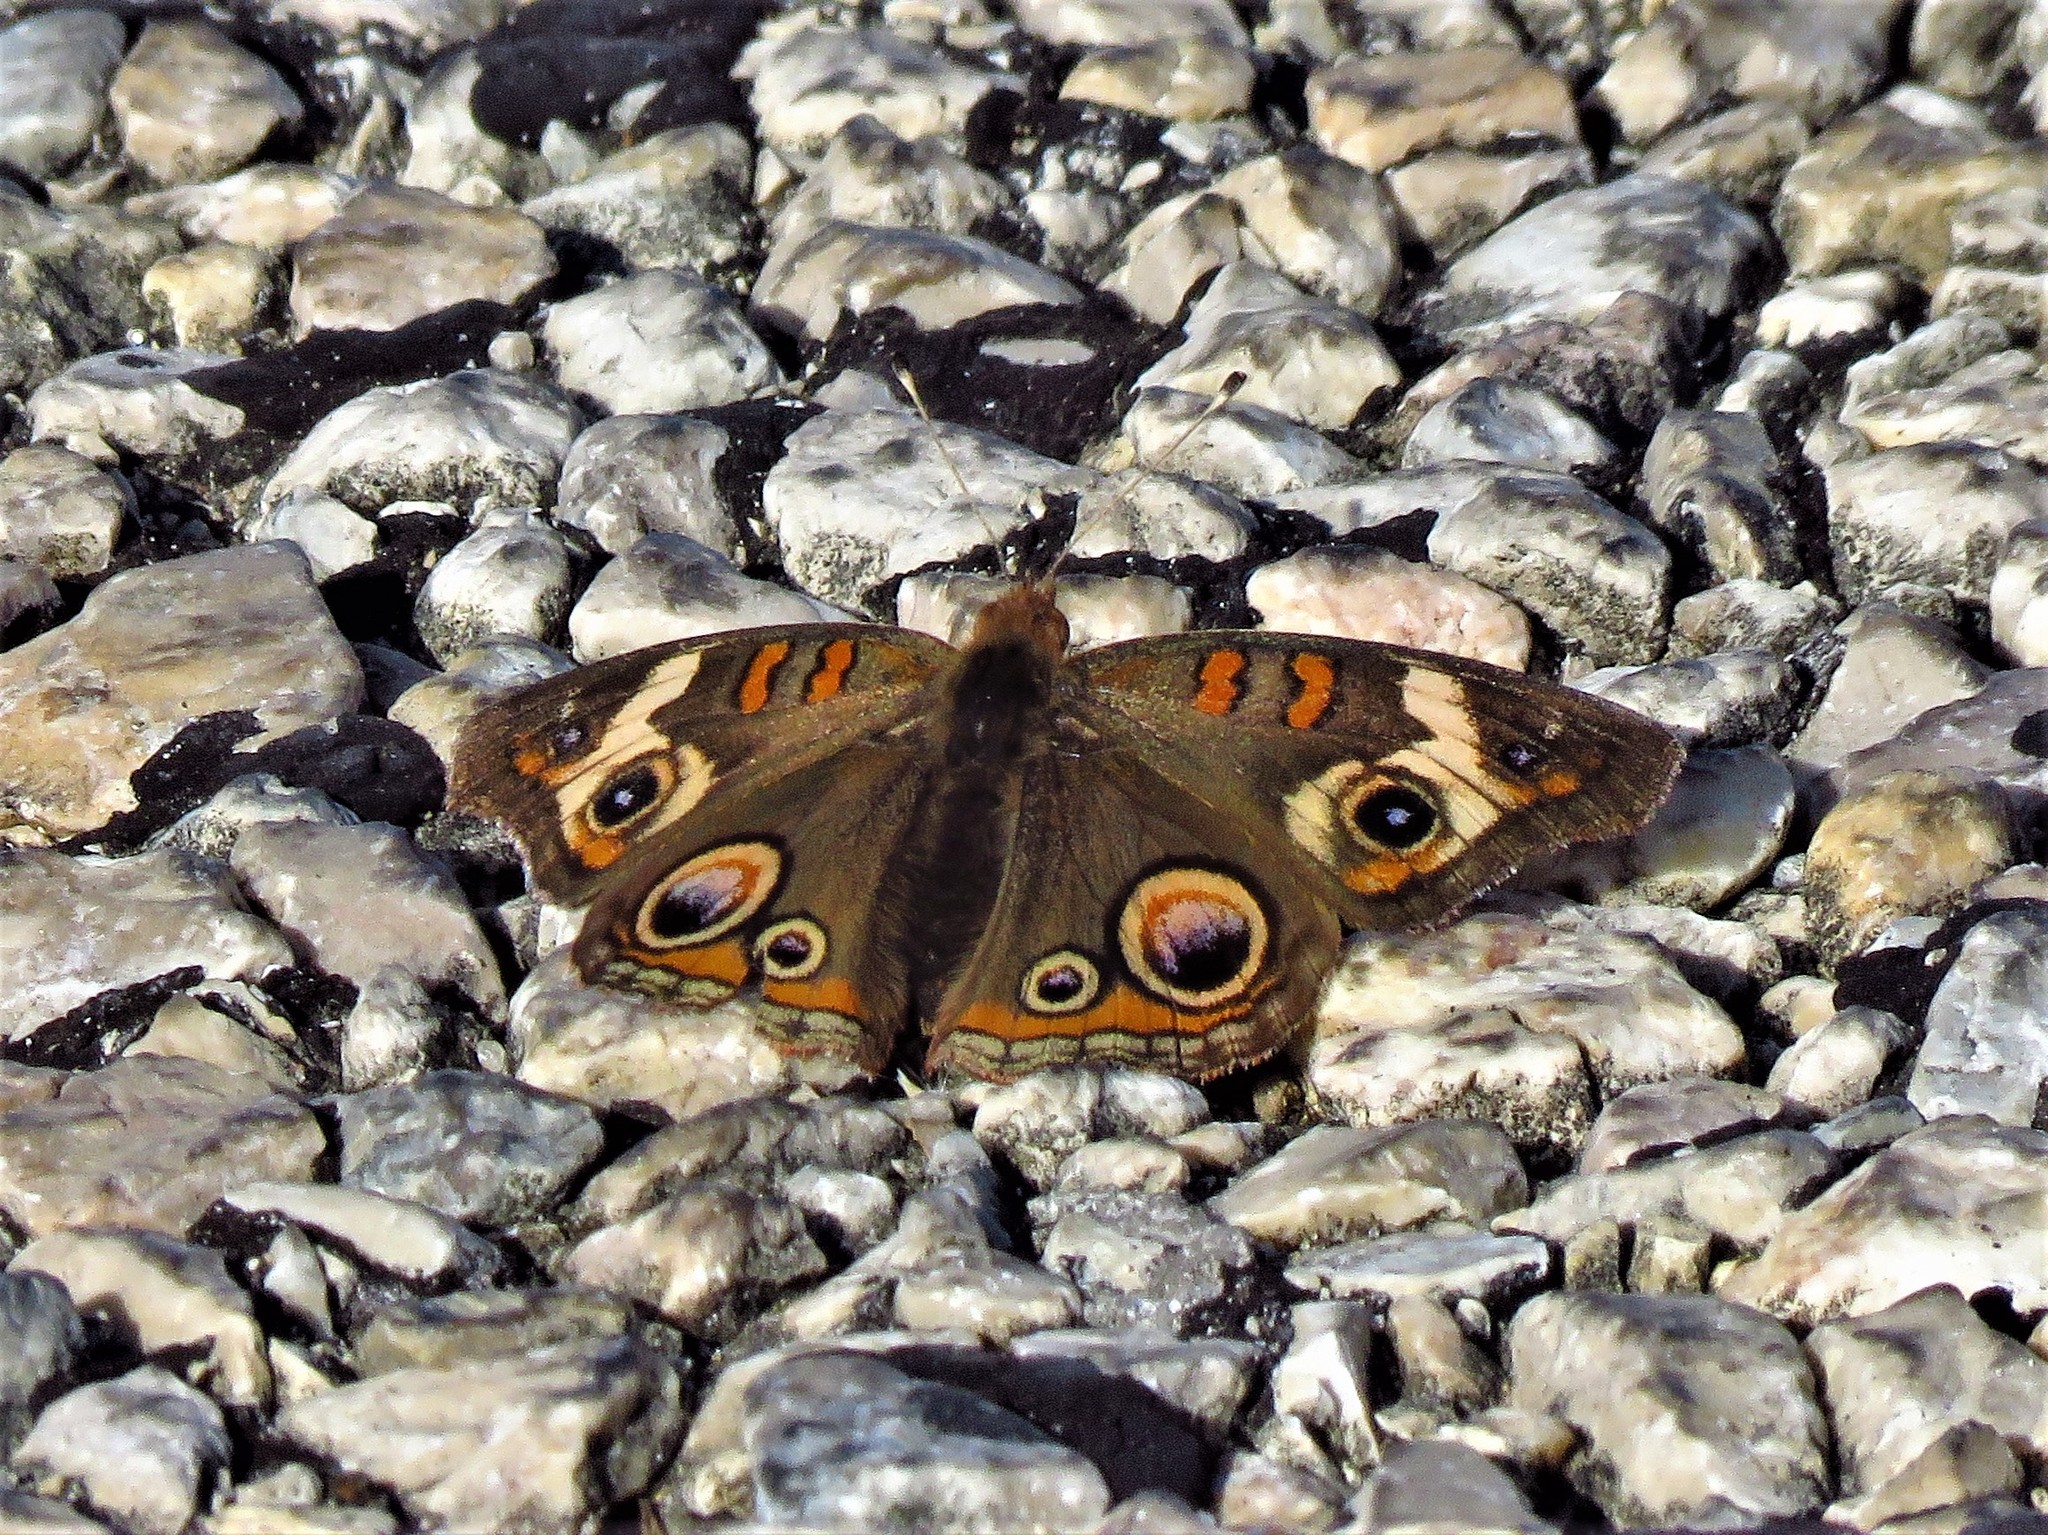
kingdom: Animalia
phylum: Arthropoda
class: Insecta
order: Lepidoptera
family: Nymphalidae
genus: Junonia
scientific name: Junonia coenia
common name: Common buckeye
